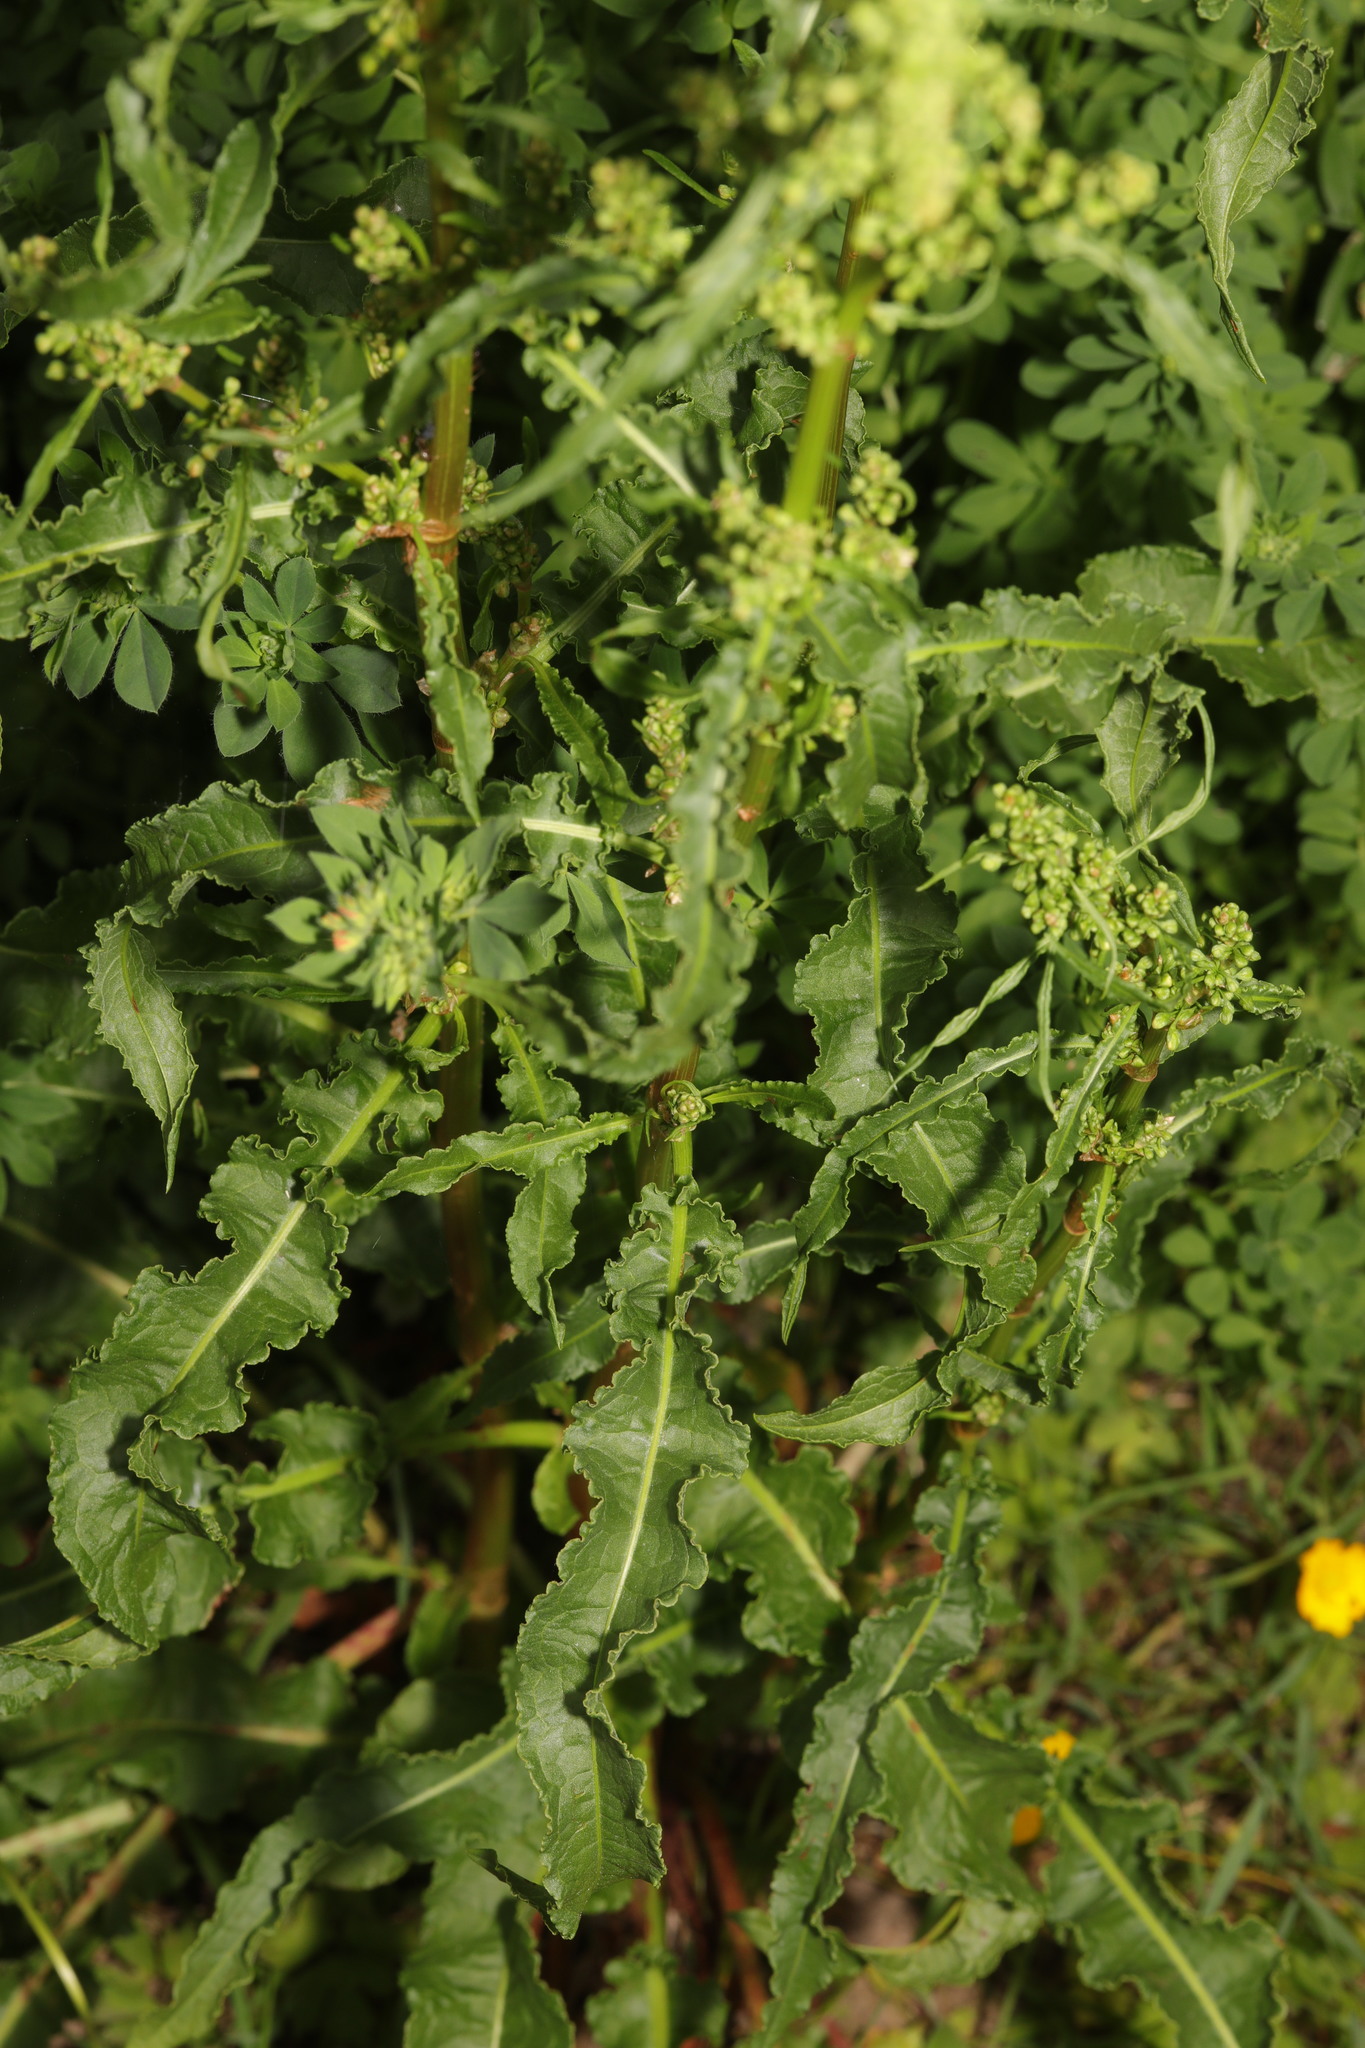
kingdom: Plantae
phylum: Tracheophyta
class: Magnoliopsida
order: Caryophyllales
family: Polygonaceae
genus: Rumex
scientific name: Rumex crispus
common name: Curled dock
